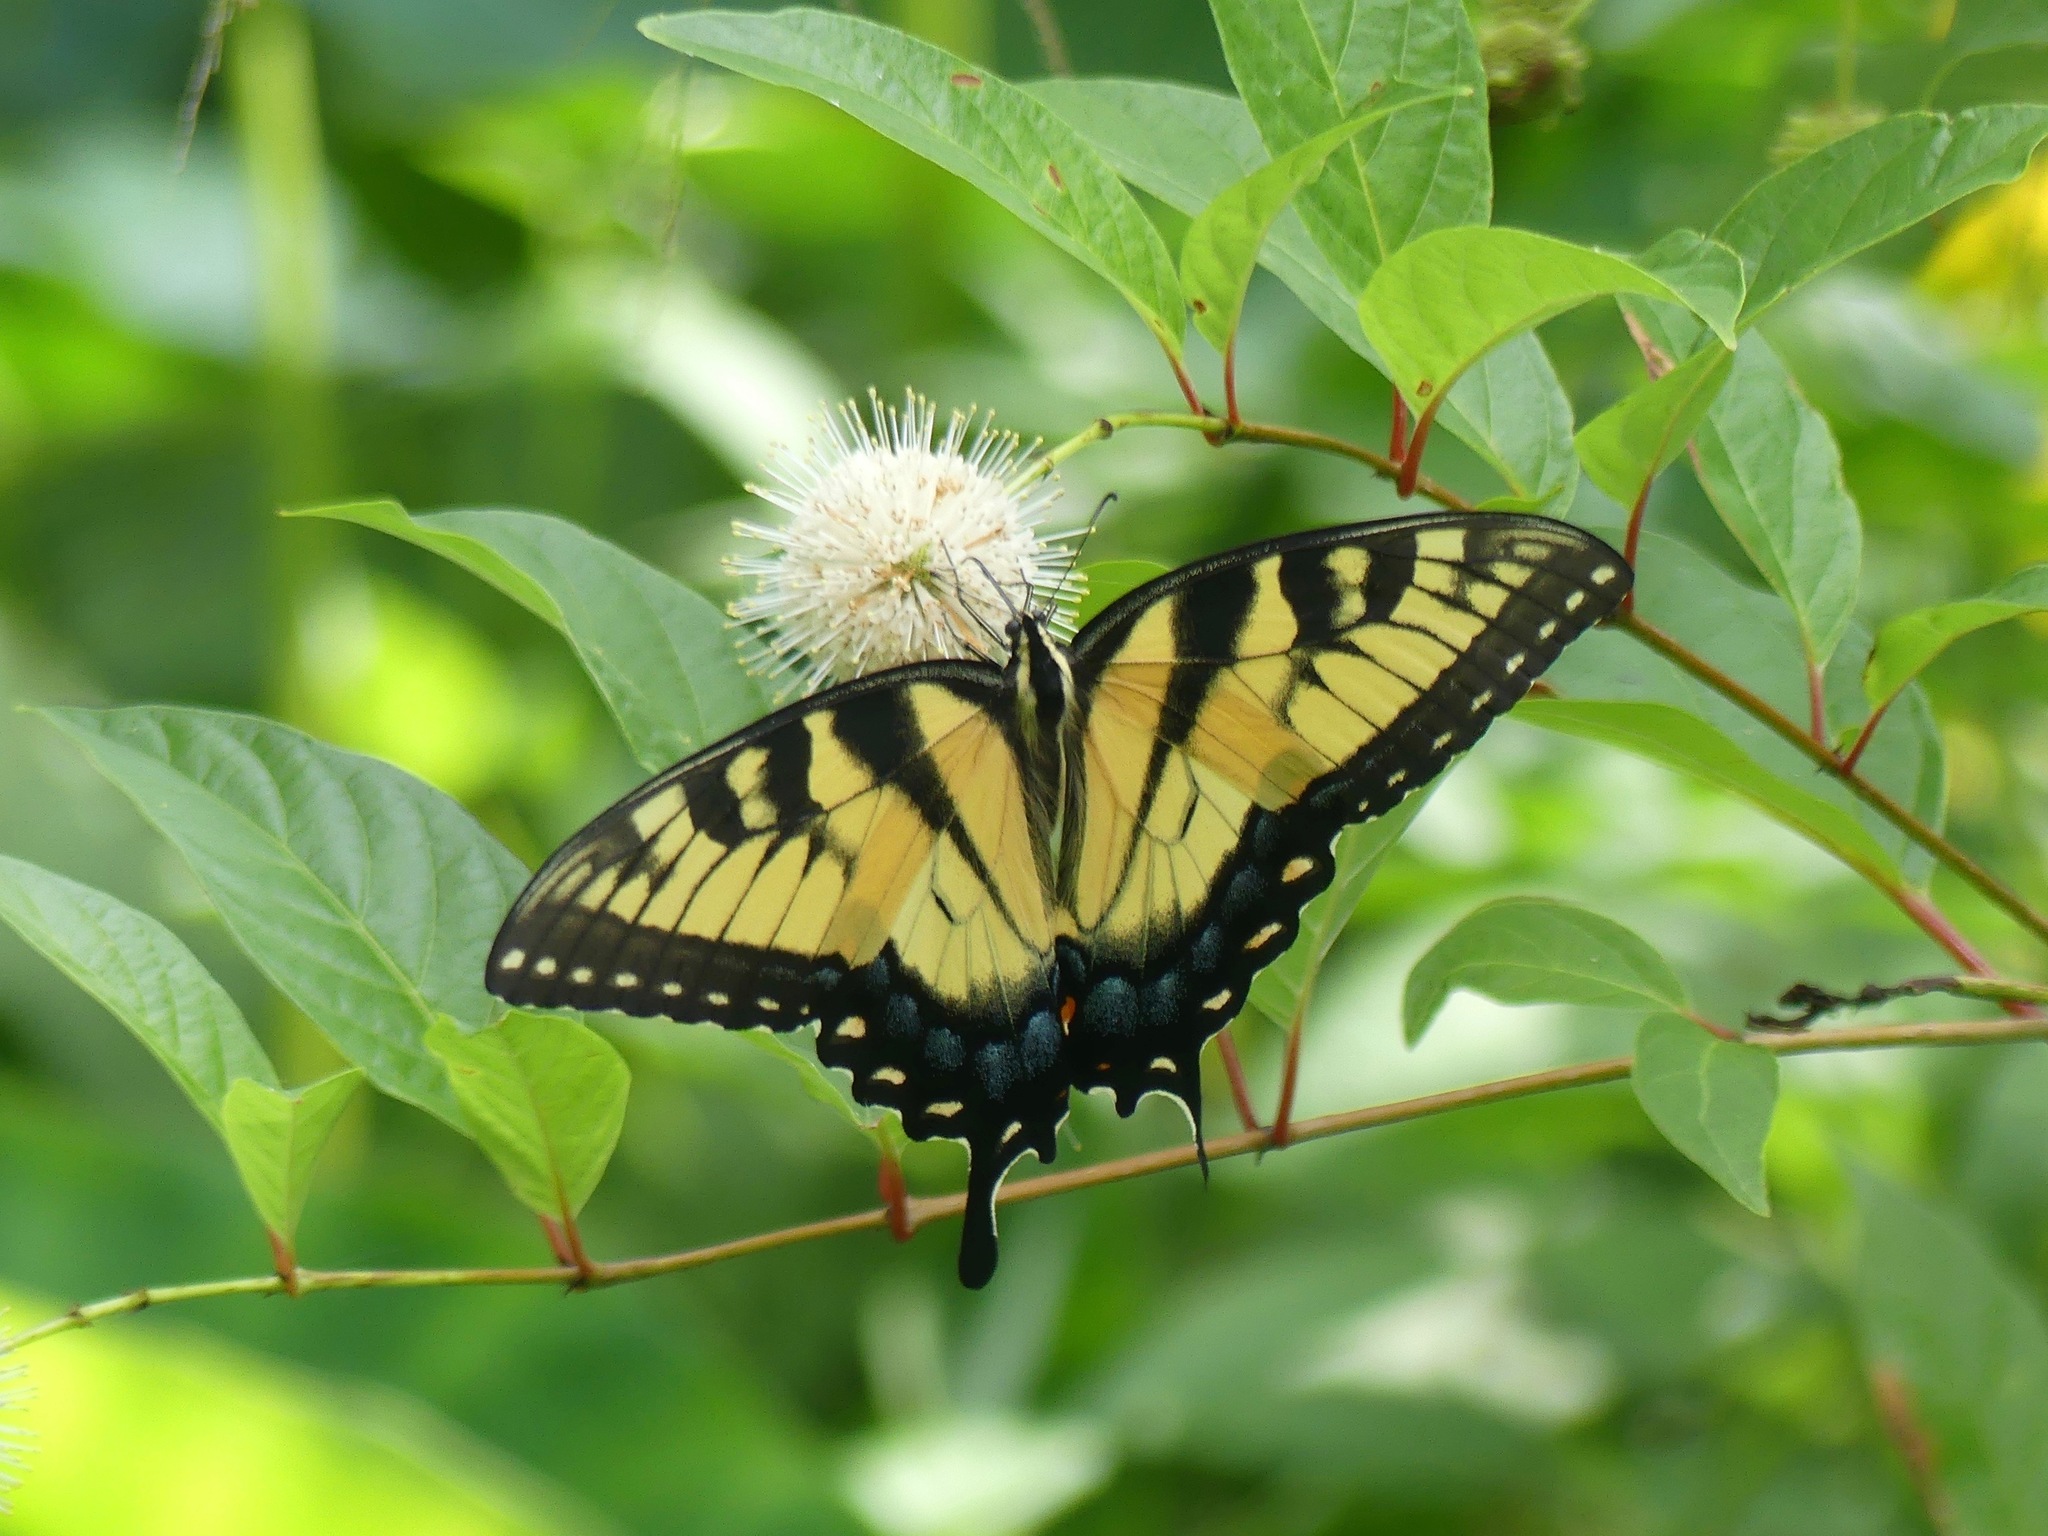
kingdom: Animalia
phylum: Arthropoda
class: Insecta
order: Lepidoptera
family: Papilionidae
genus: Papilio
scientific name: Papilio glaucus
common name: Tiger swallowtail
